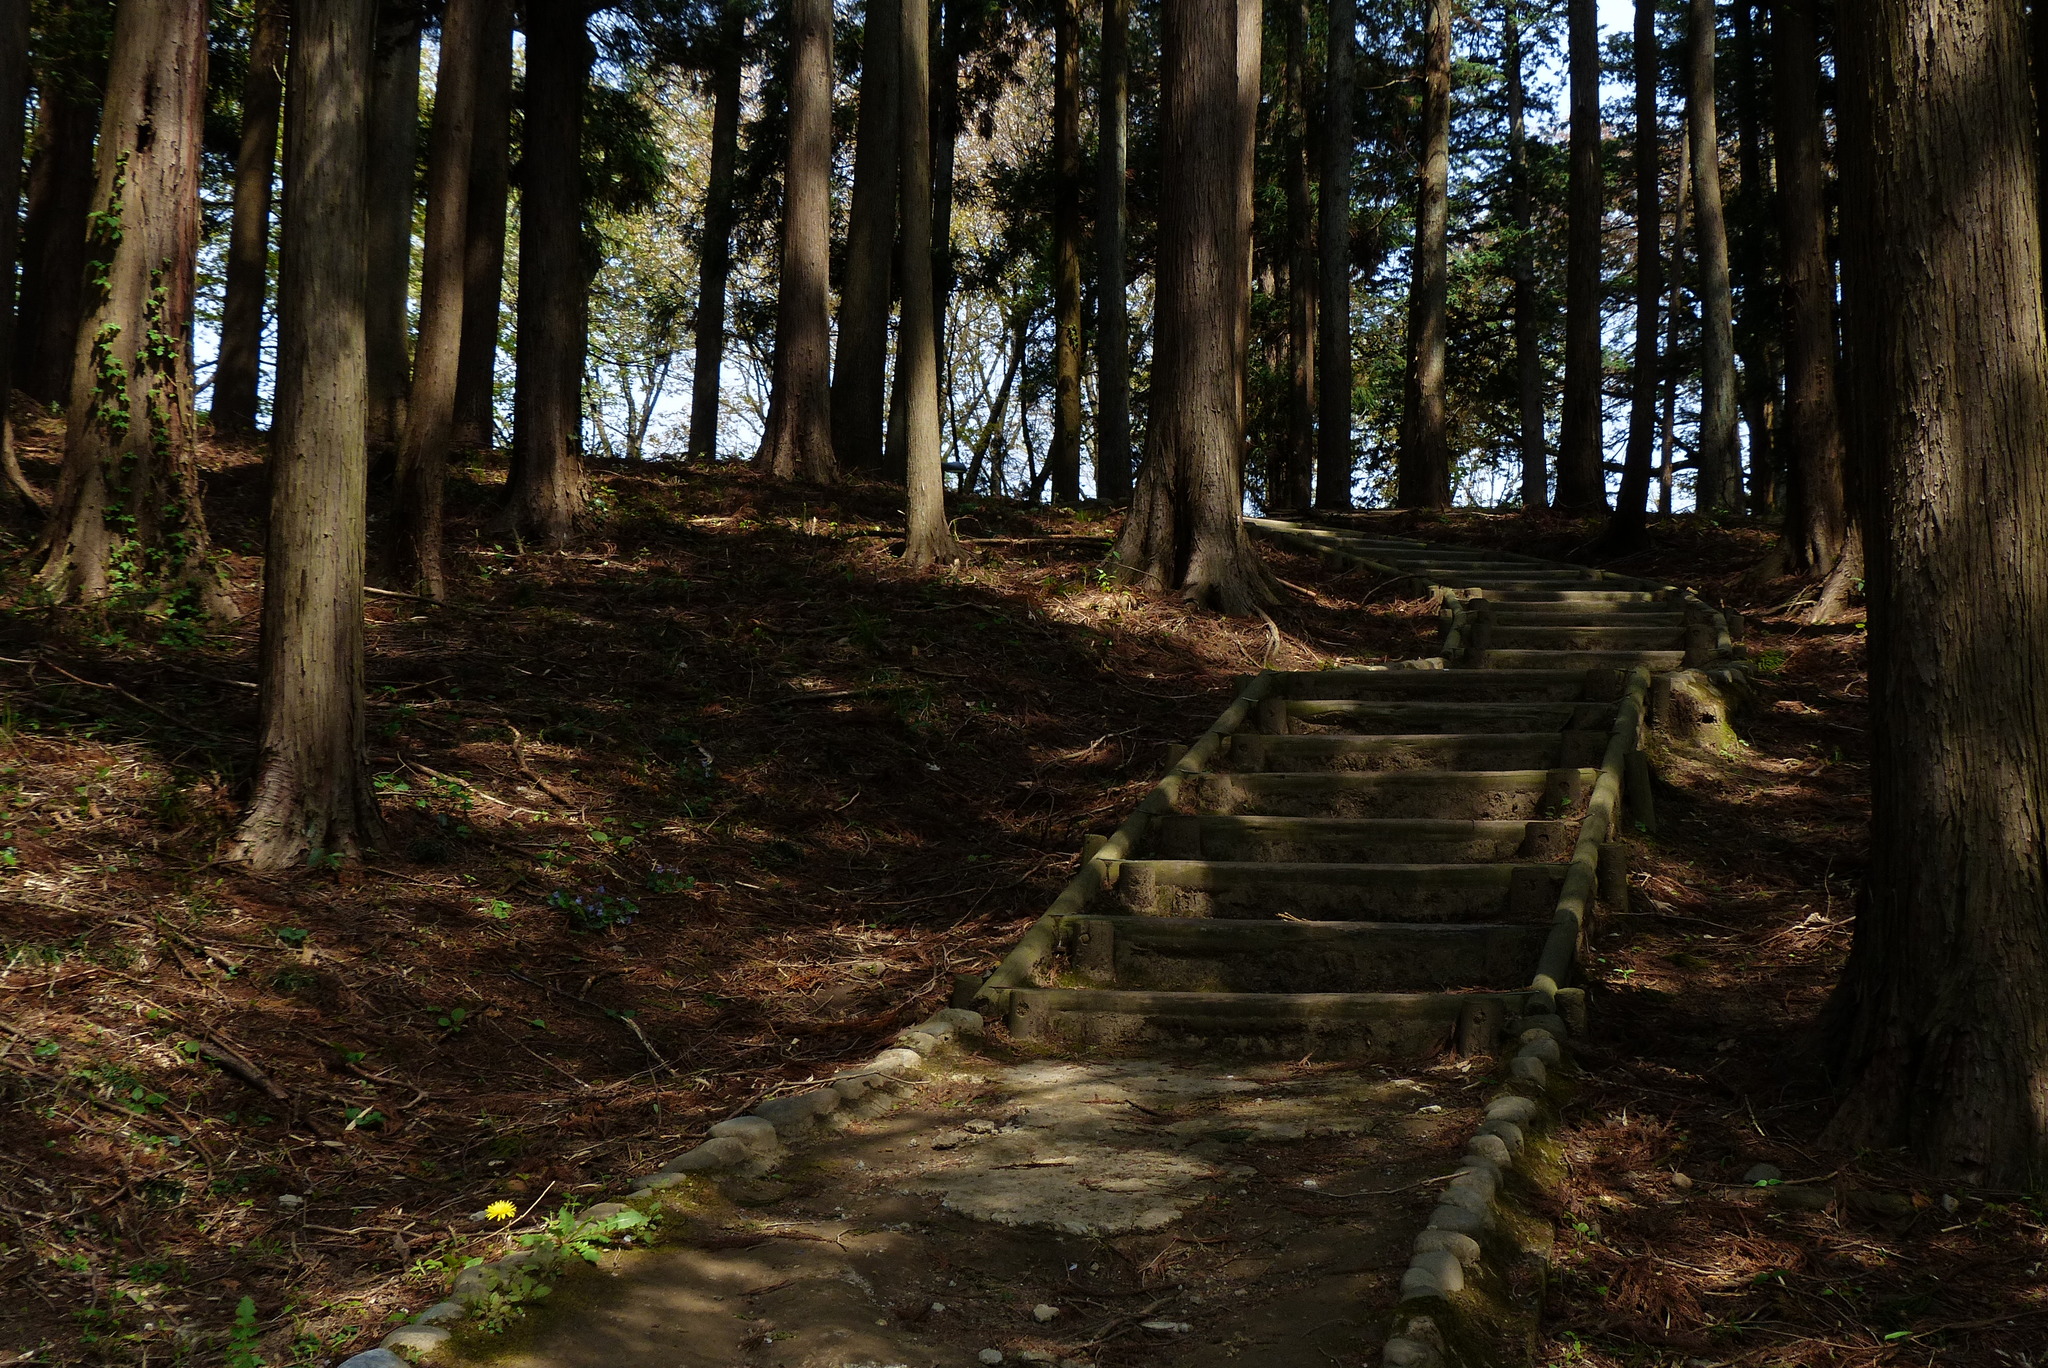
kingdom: Plantae
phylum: Tracheophyta
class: Pinopsida
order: Pinales
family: Cupressaceae
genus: Cryptomeria
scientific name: Cryptomeria japonica
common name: Japanese cedar
